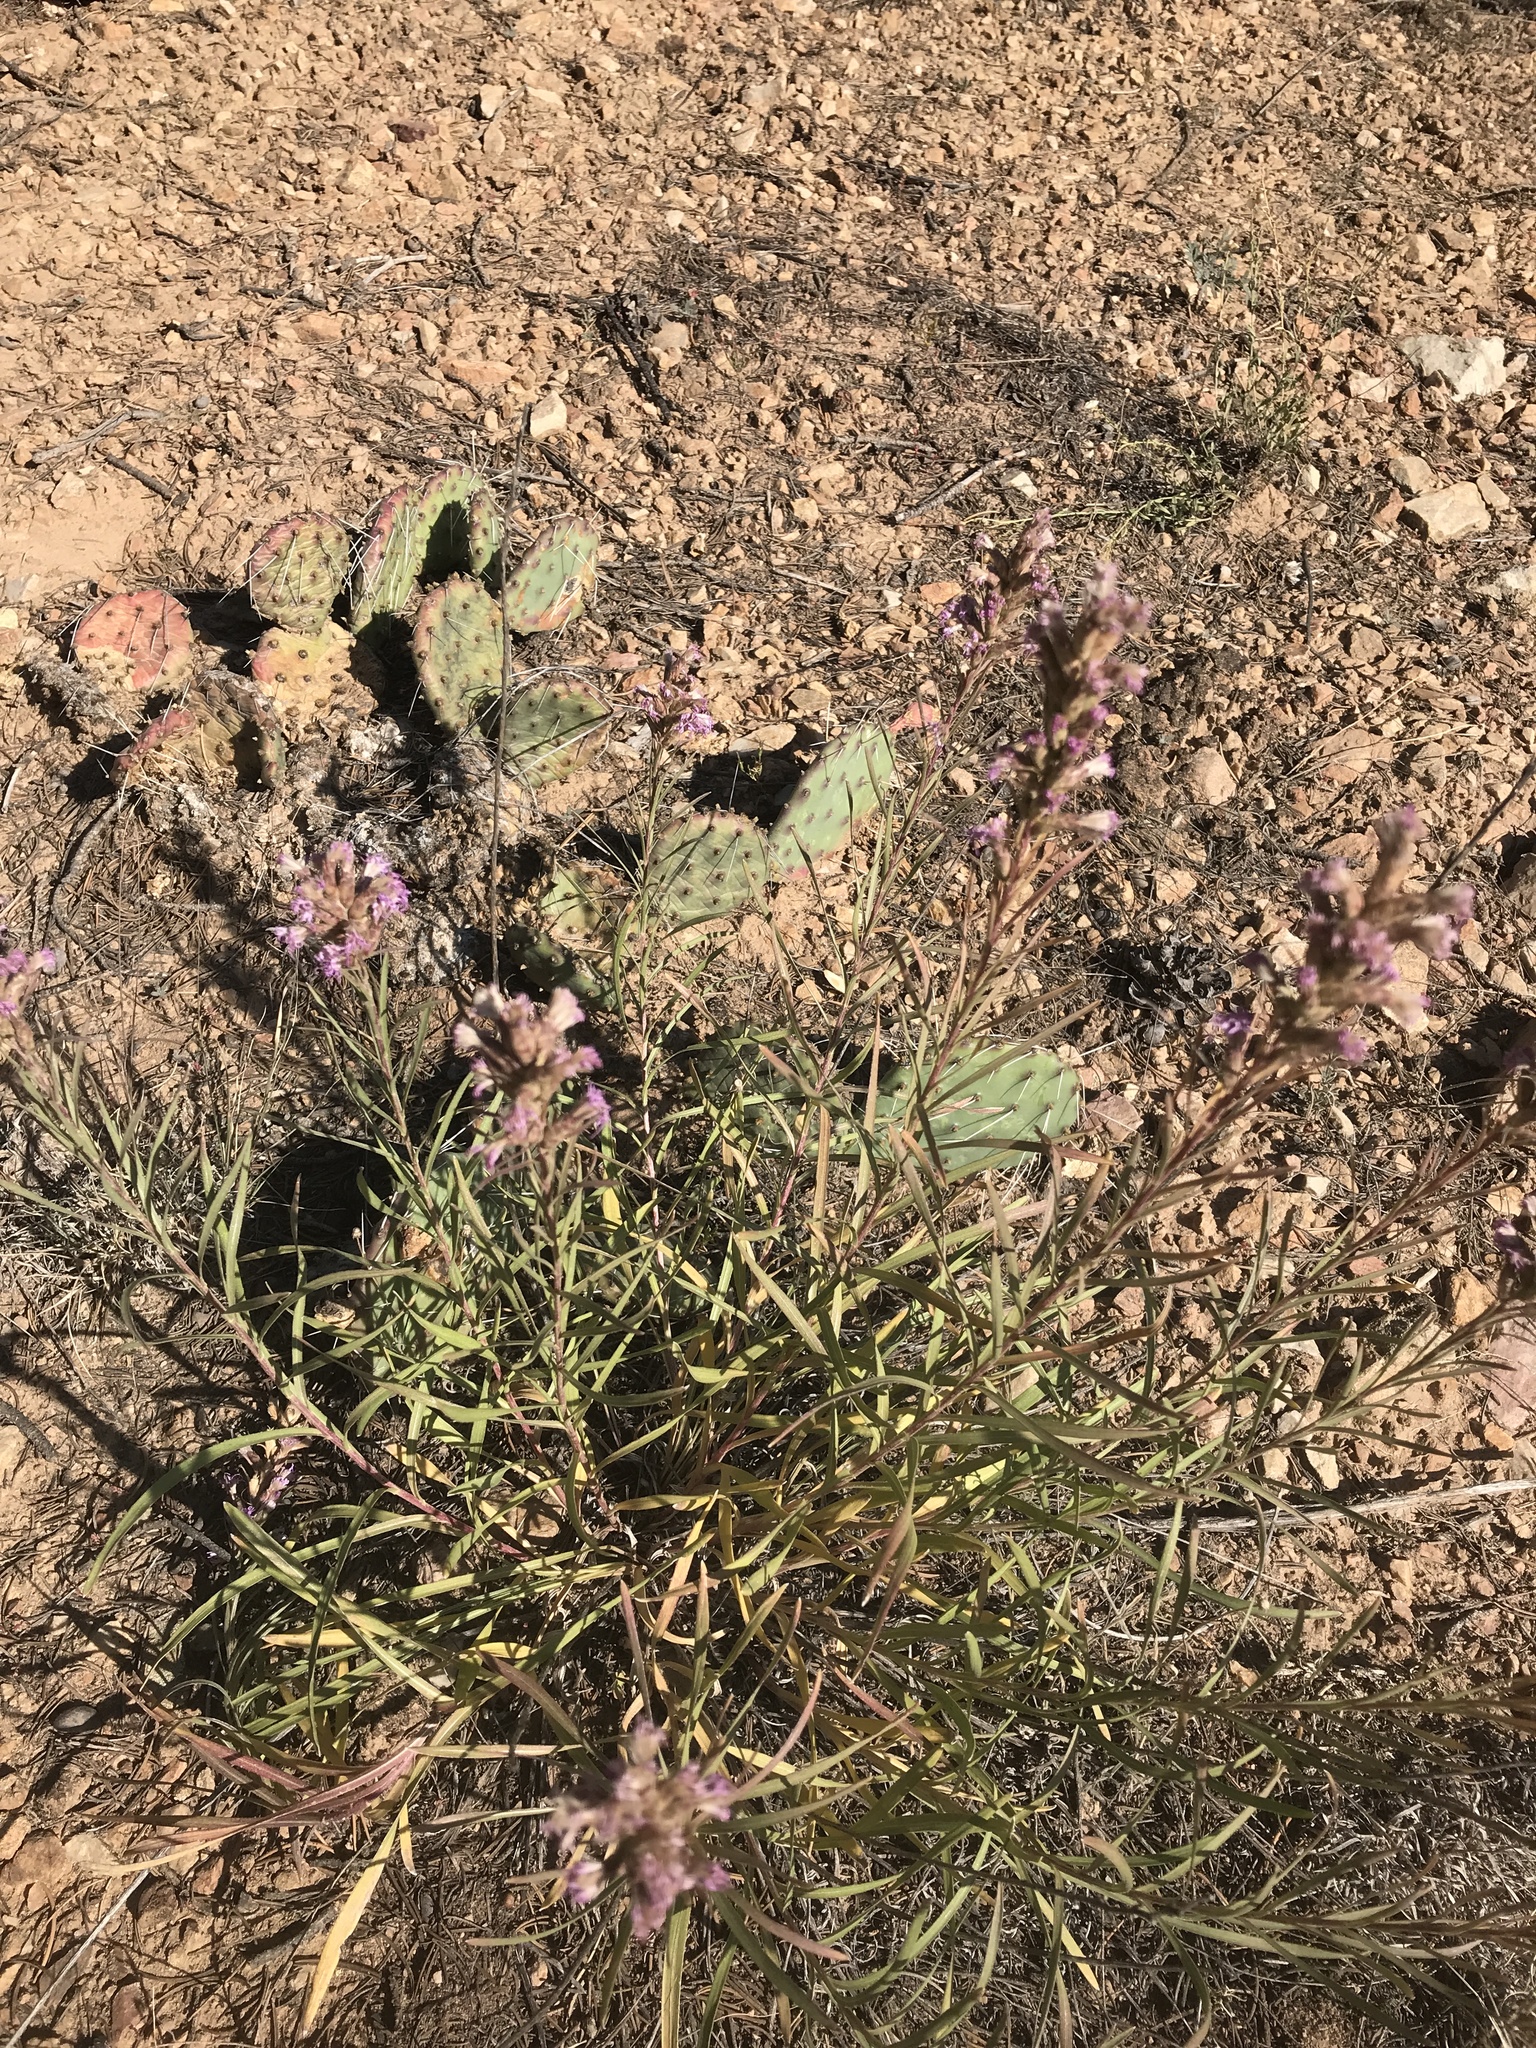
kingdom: Plantae
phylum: Tracheophyta
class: Magnoliopsida
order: Asterales
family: Asteraceae
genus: Liatris
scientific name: Liatris punctata
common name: Dotted gayfeather
